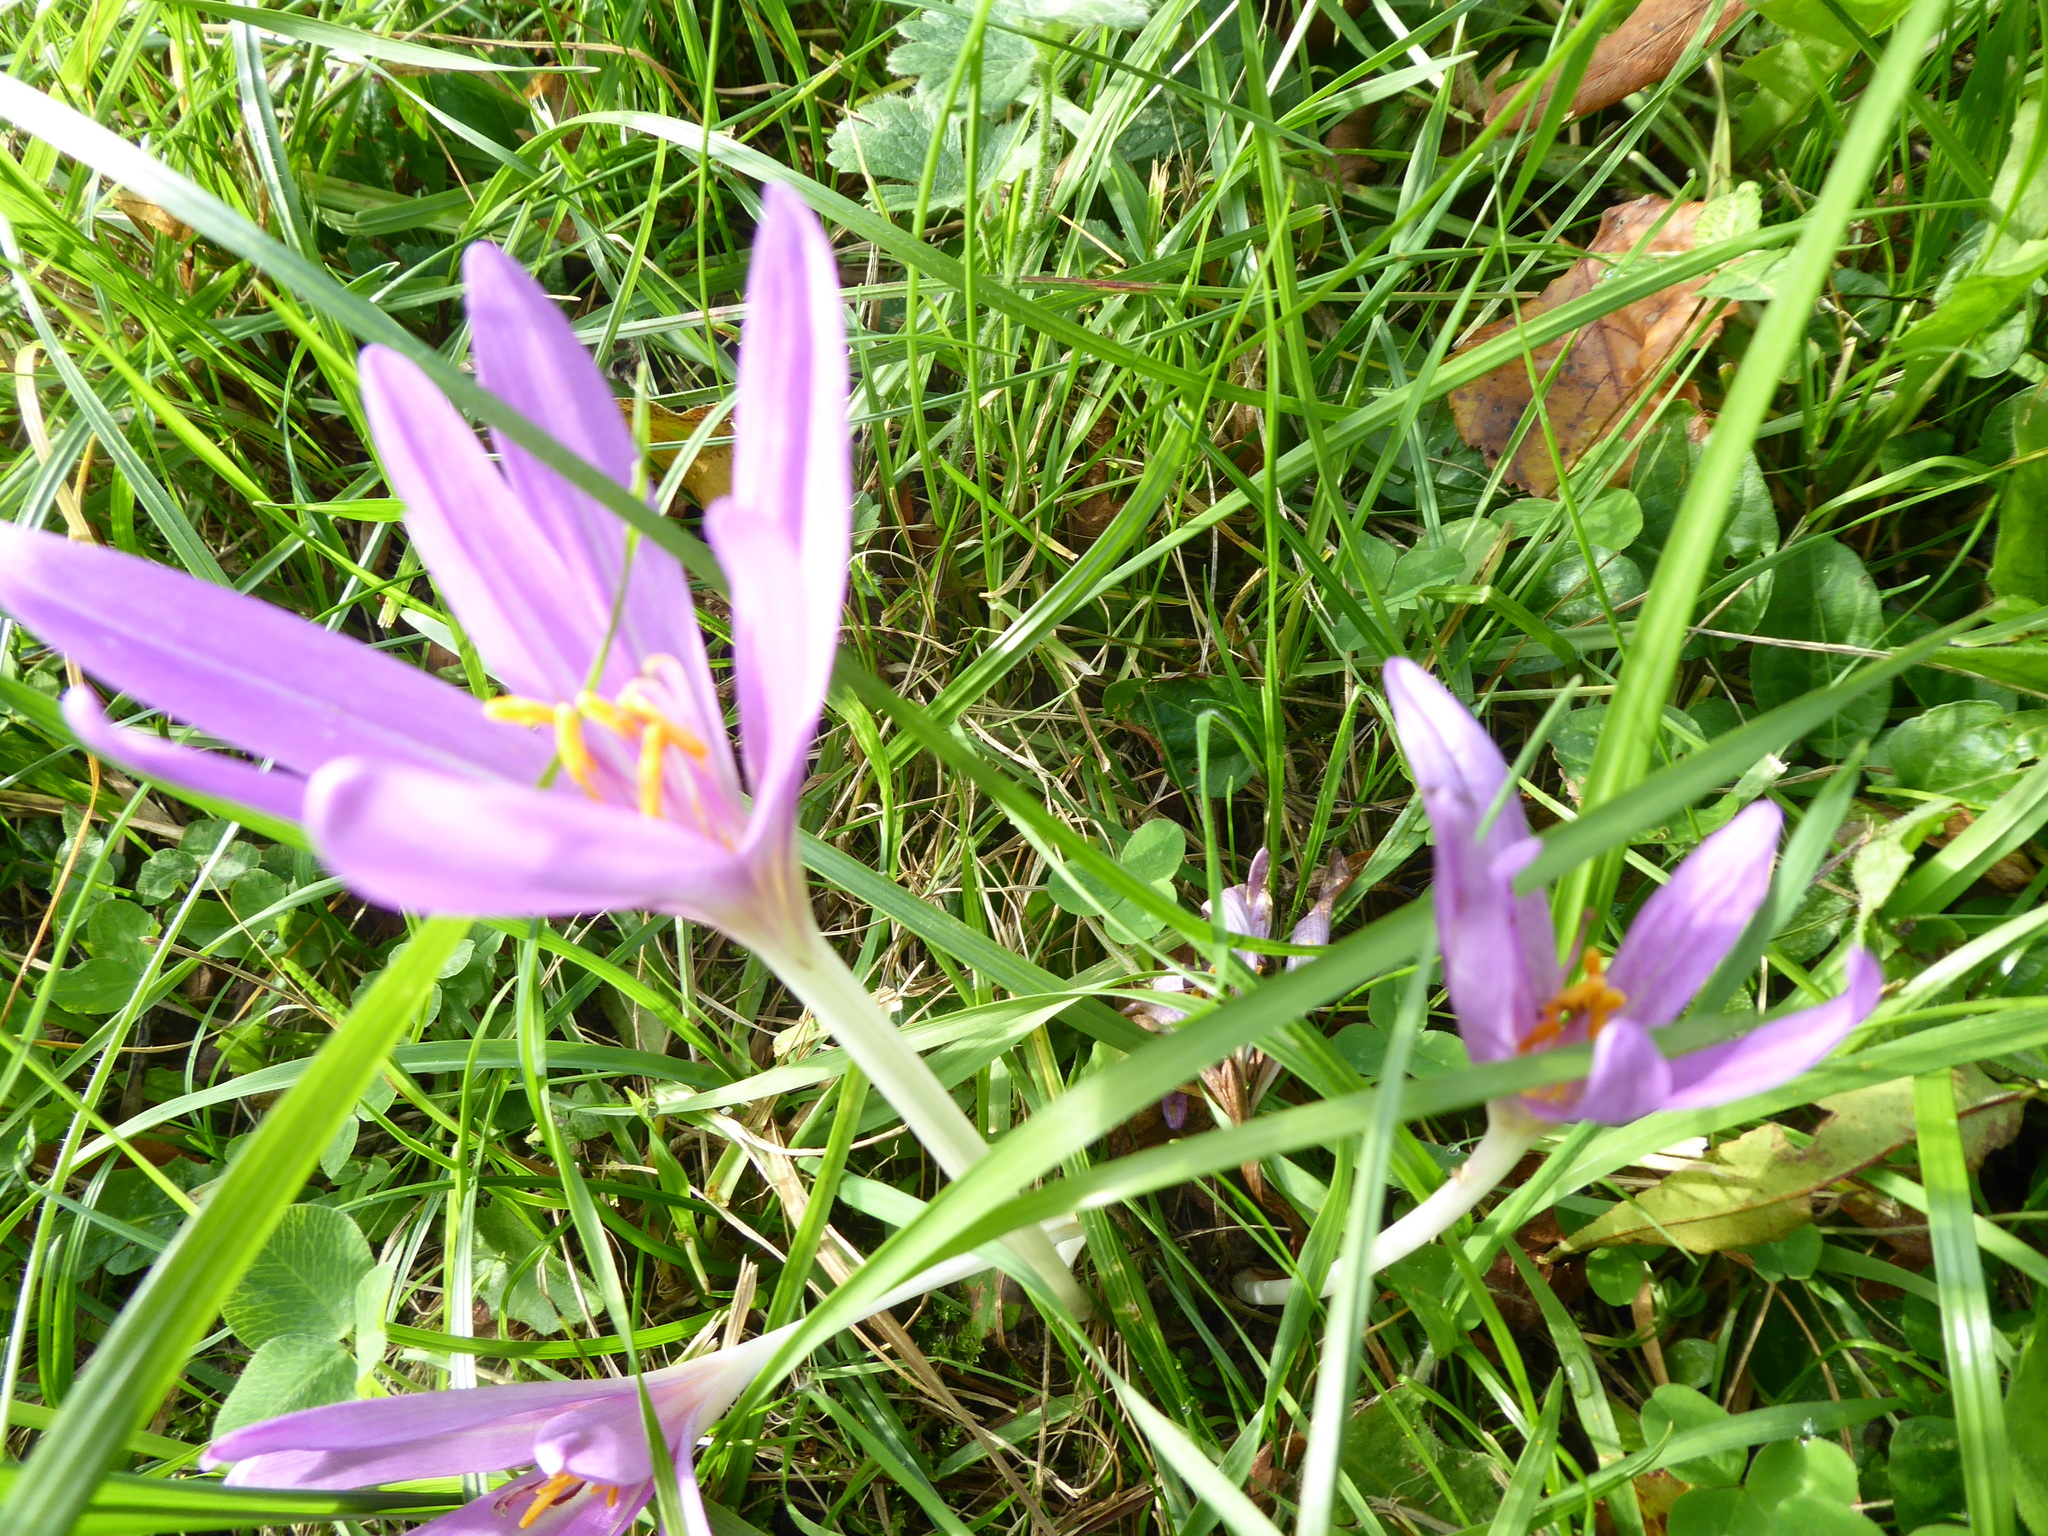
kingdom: Plantae
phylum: Tracheophyta
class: Liliopsida
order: Liliales
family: Colchicaceae
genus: Colchicum
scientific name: Colchicum autumnale
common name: Autumn crocus
